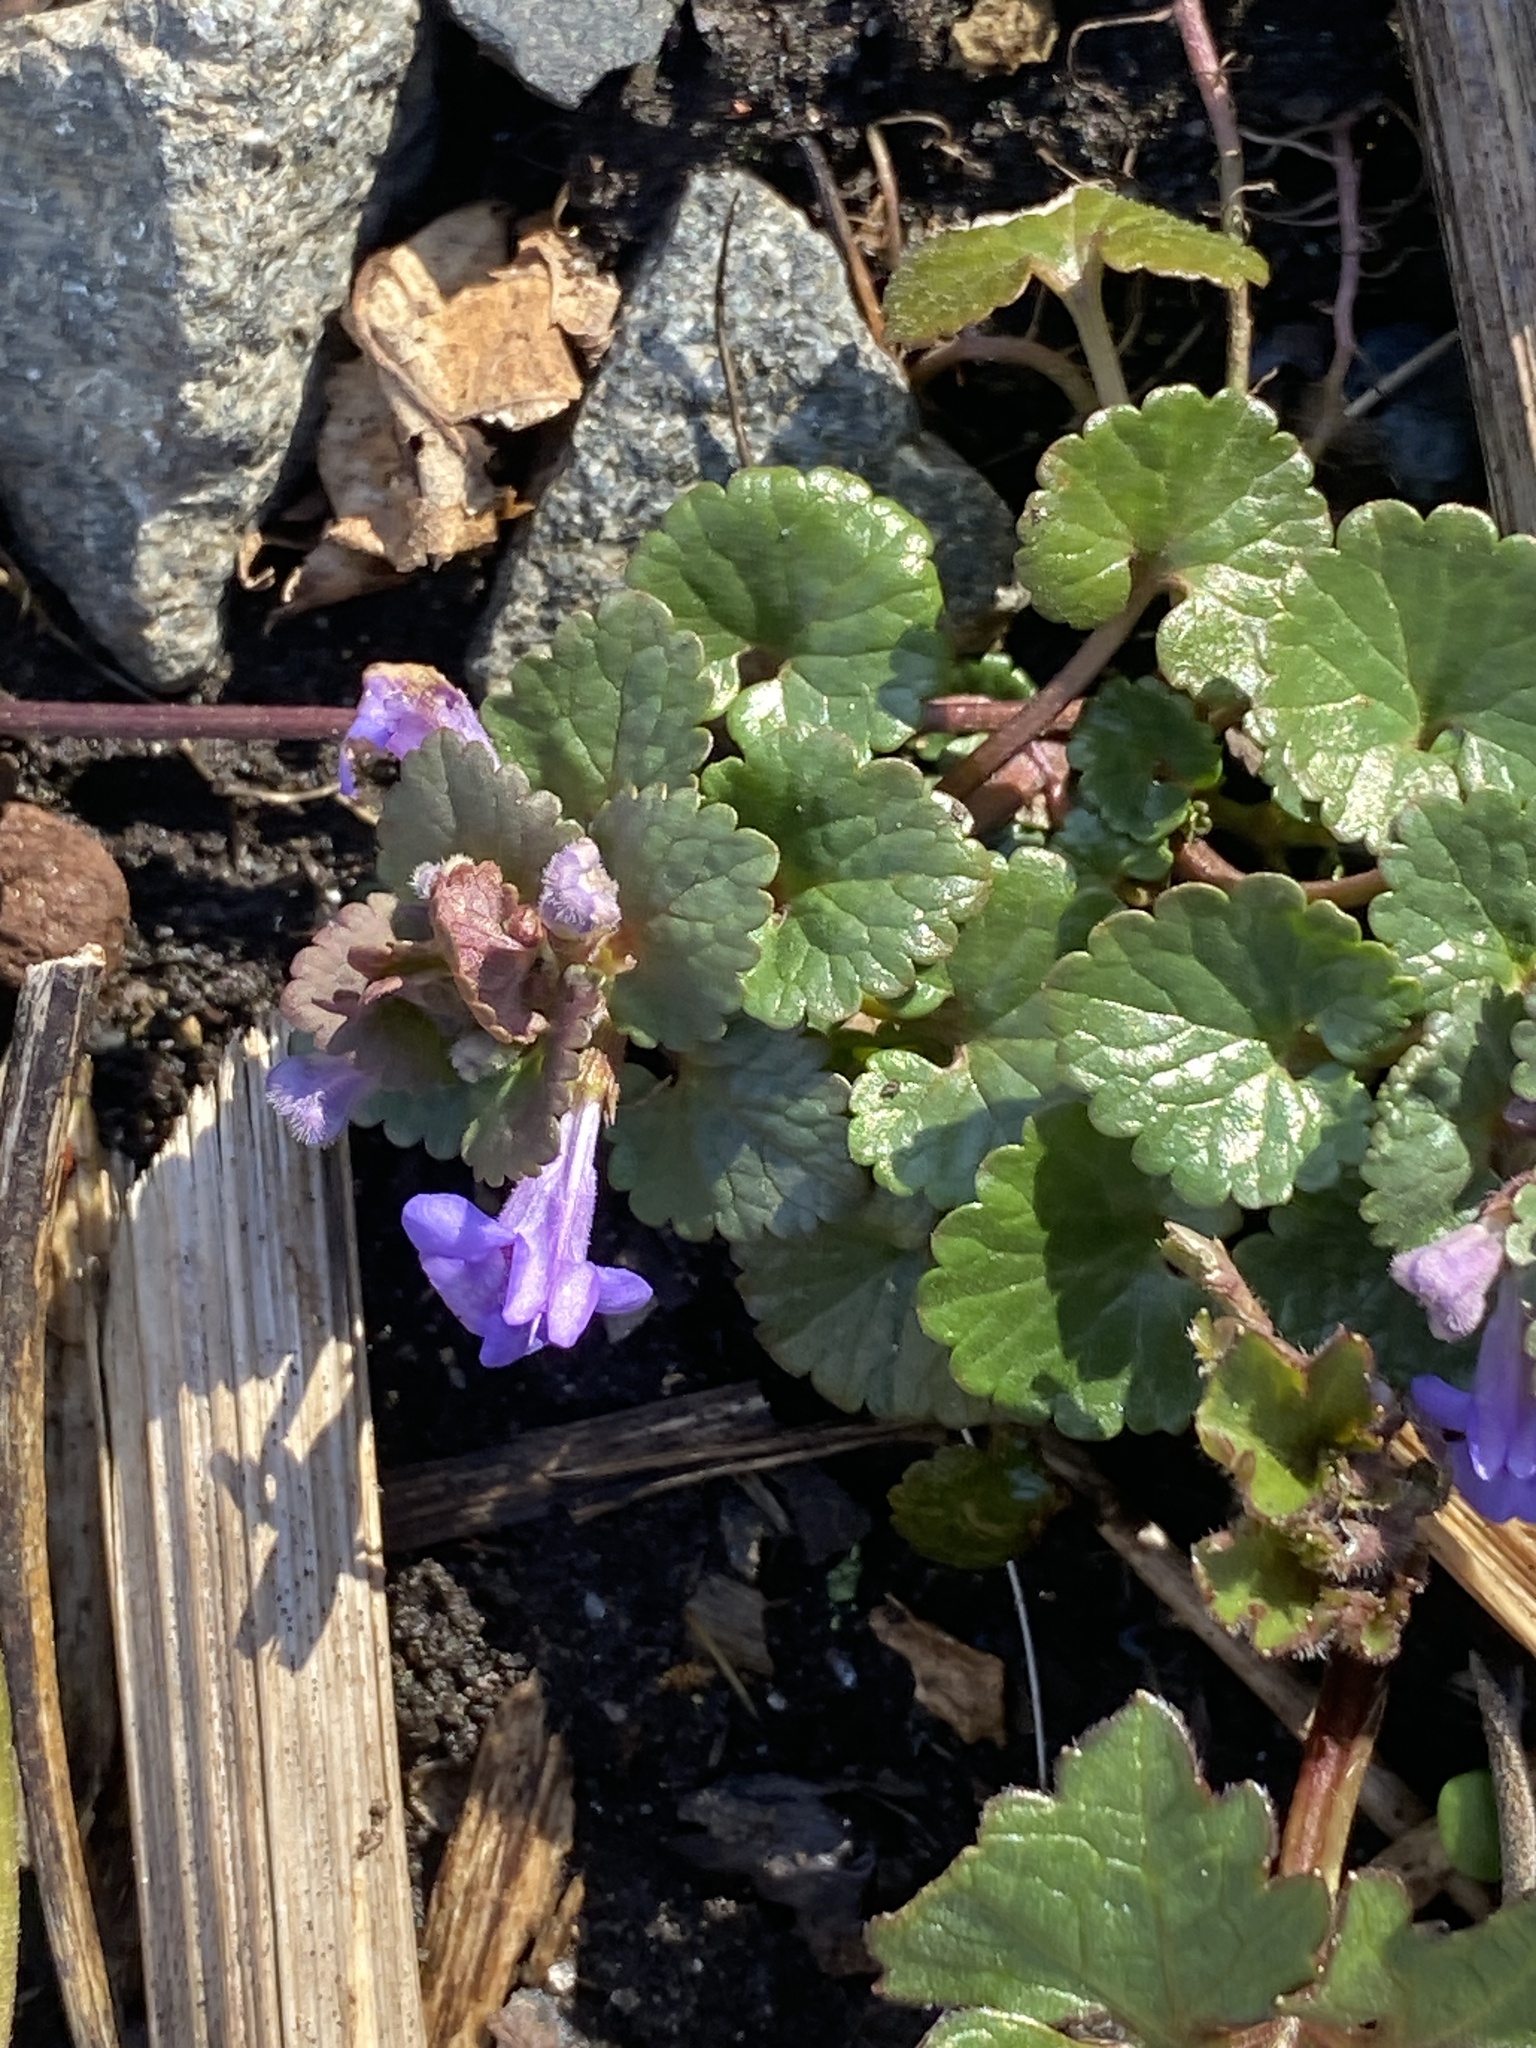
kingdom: Plantae
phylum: Tracheophyta
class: Magnoliopsida
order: Lamiales
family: Lamiaceae
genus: Glechoma
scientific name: Glechoma hederacea
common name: Ground ivy
